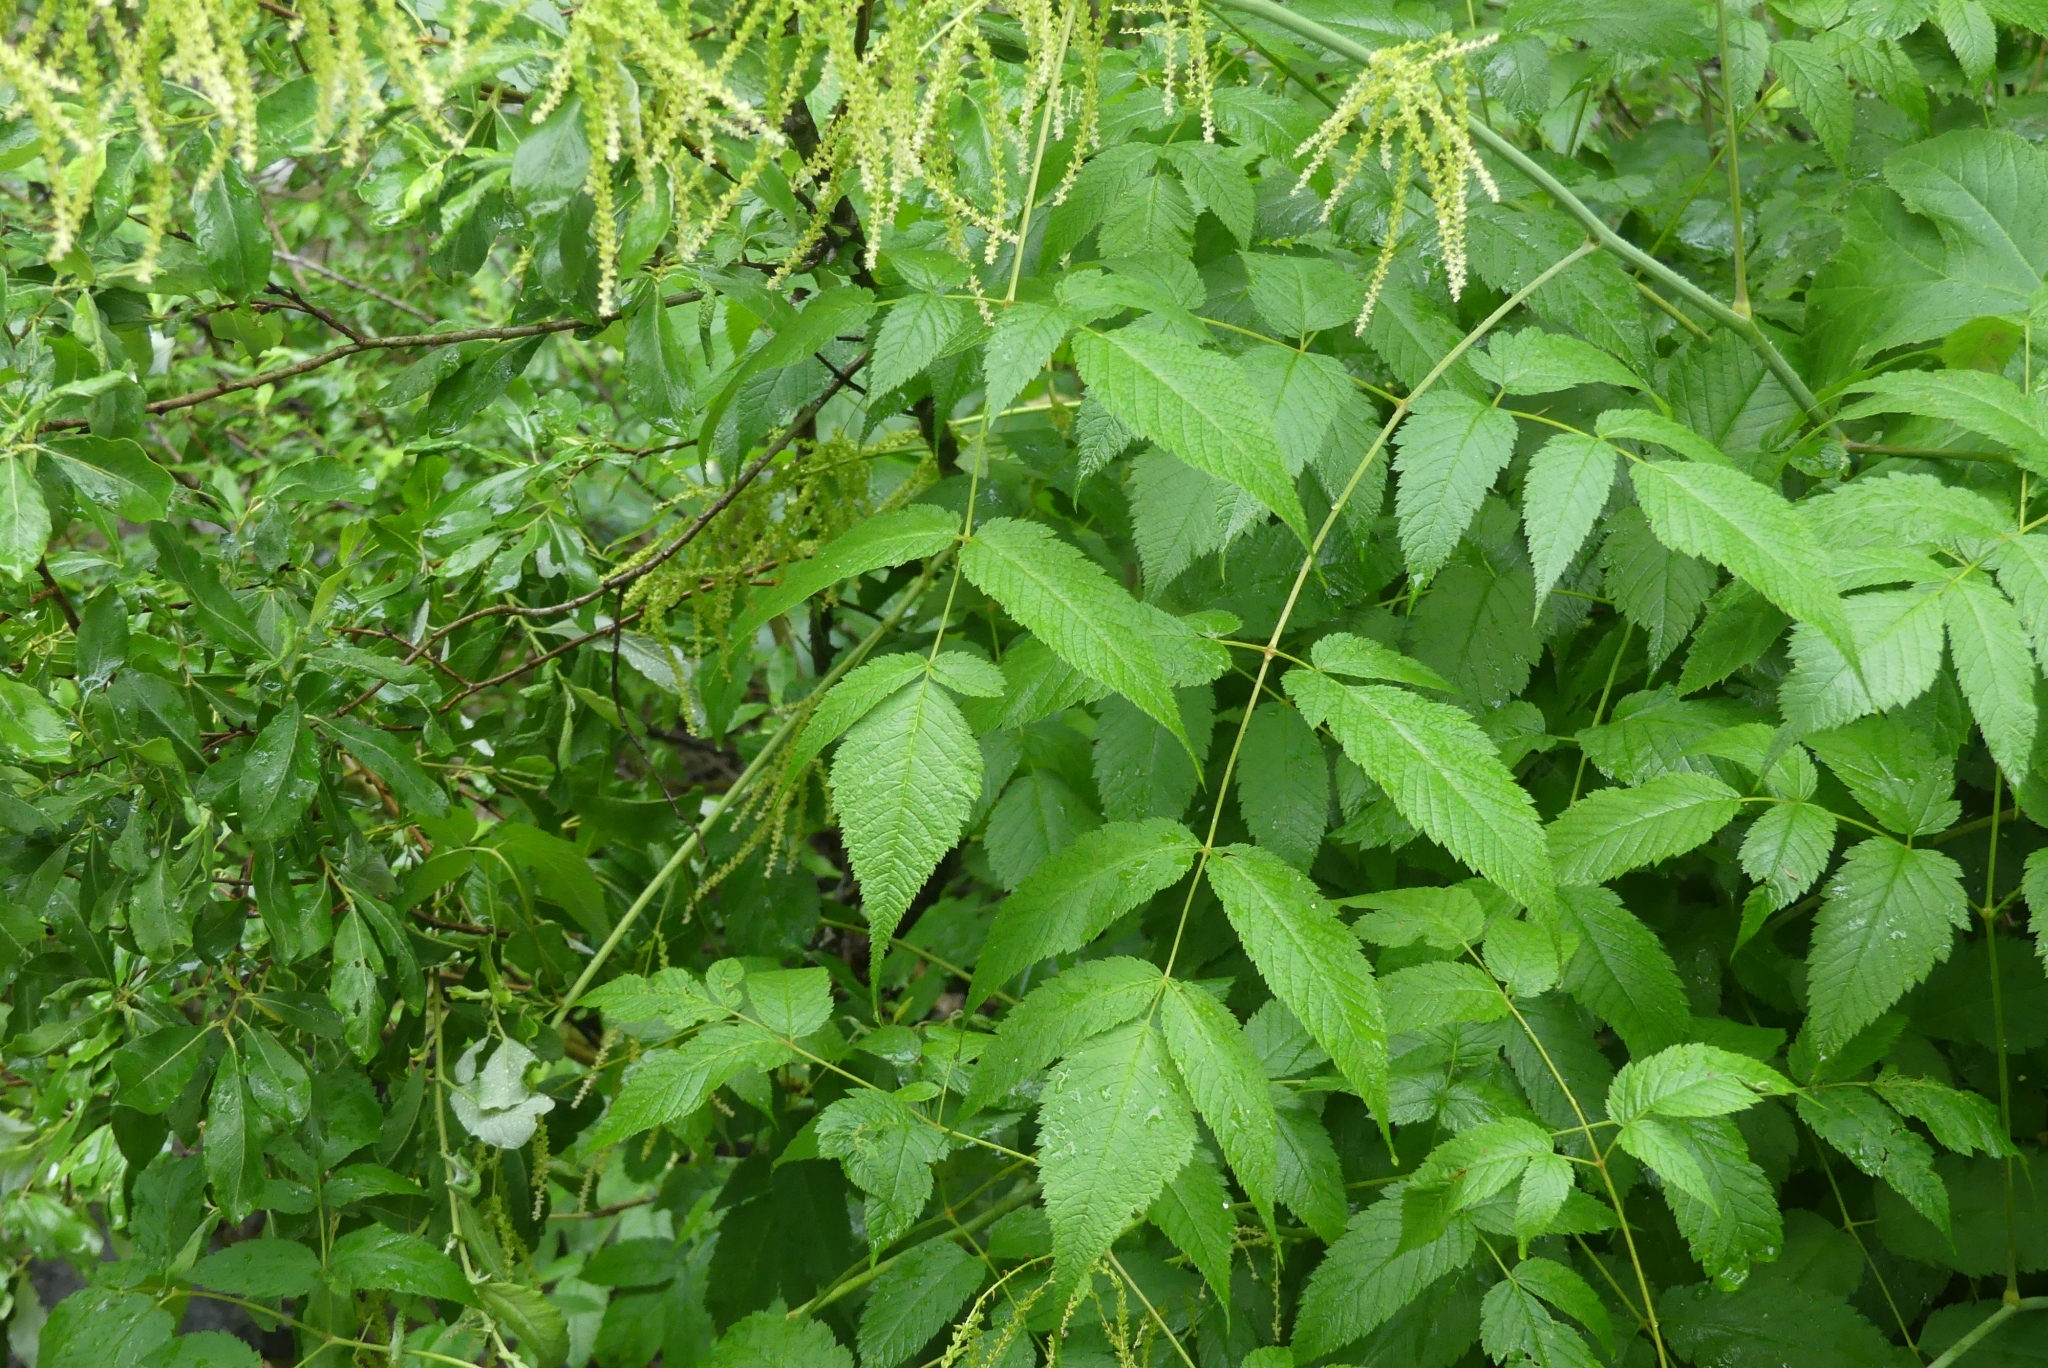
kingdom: Plantae
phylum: Tracheophyta
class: Magnoliopsida
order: Rosales
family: Rosaceae
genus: Aruncus
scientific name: Aruncus dioicus
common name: Buck's-beard
